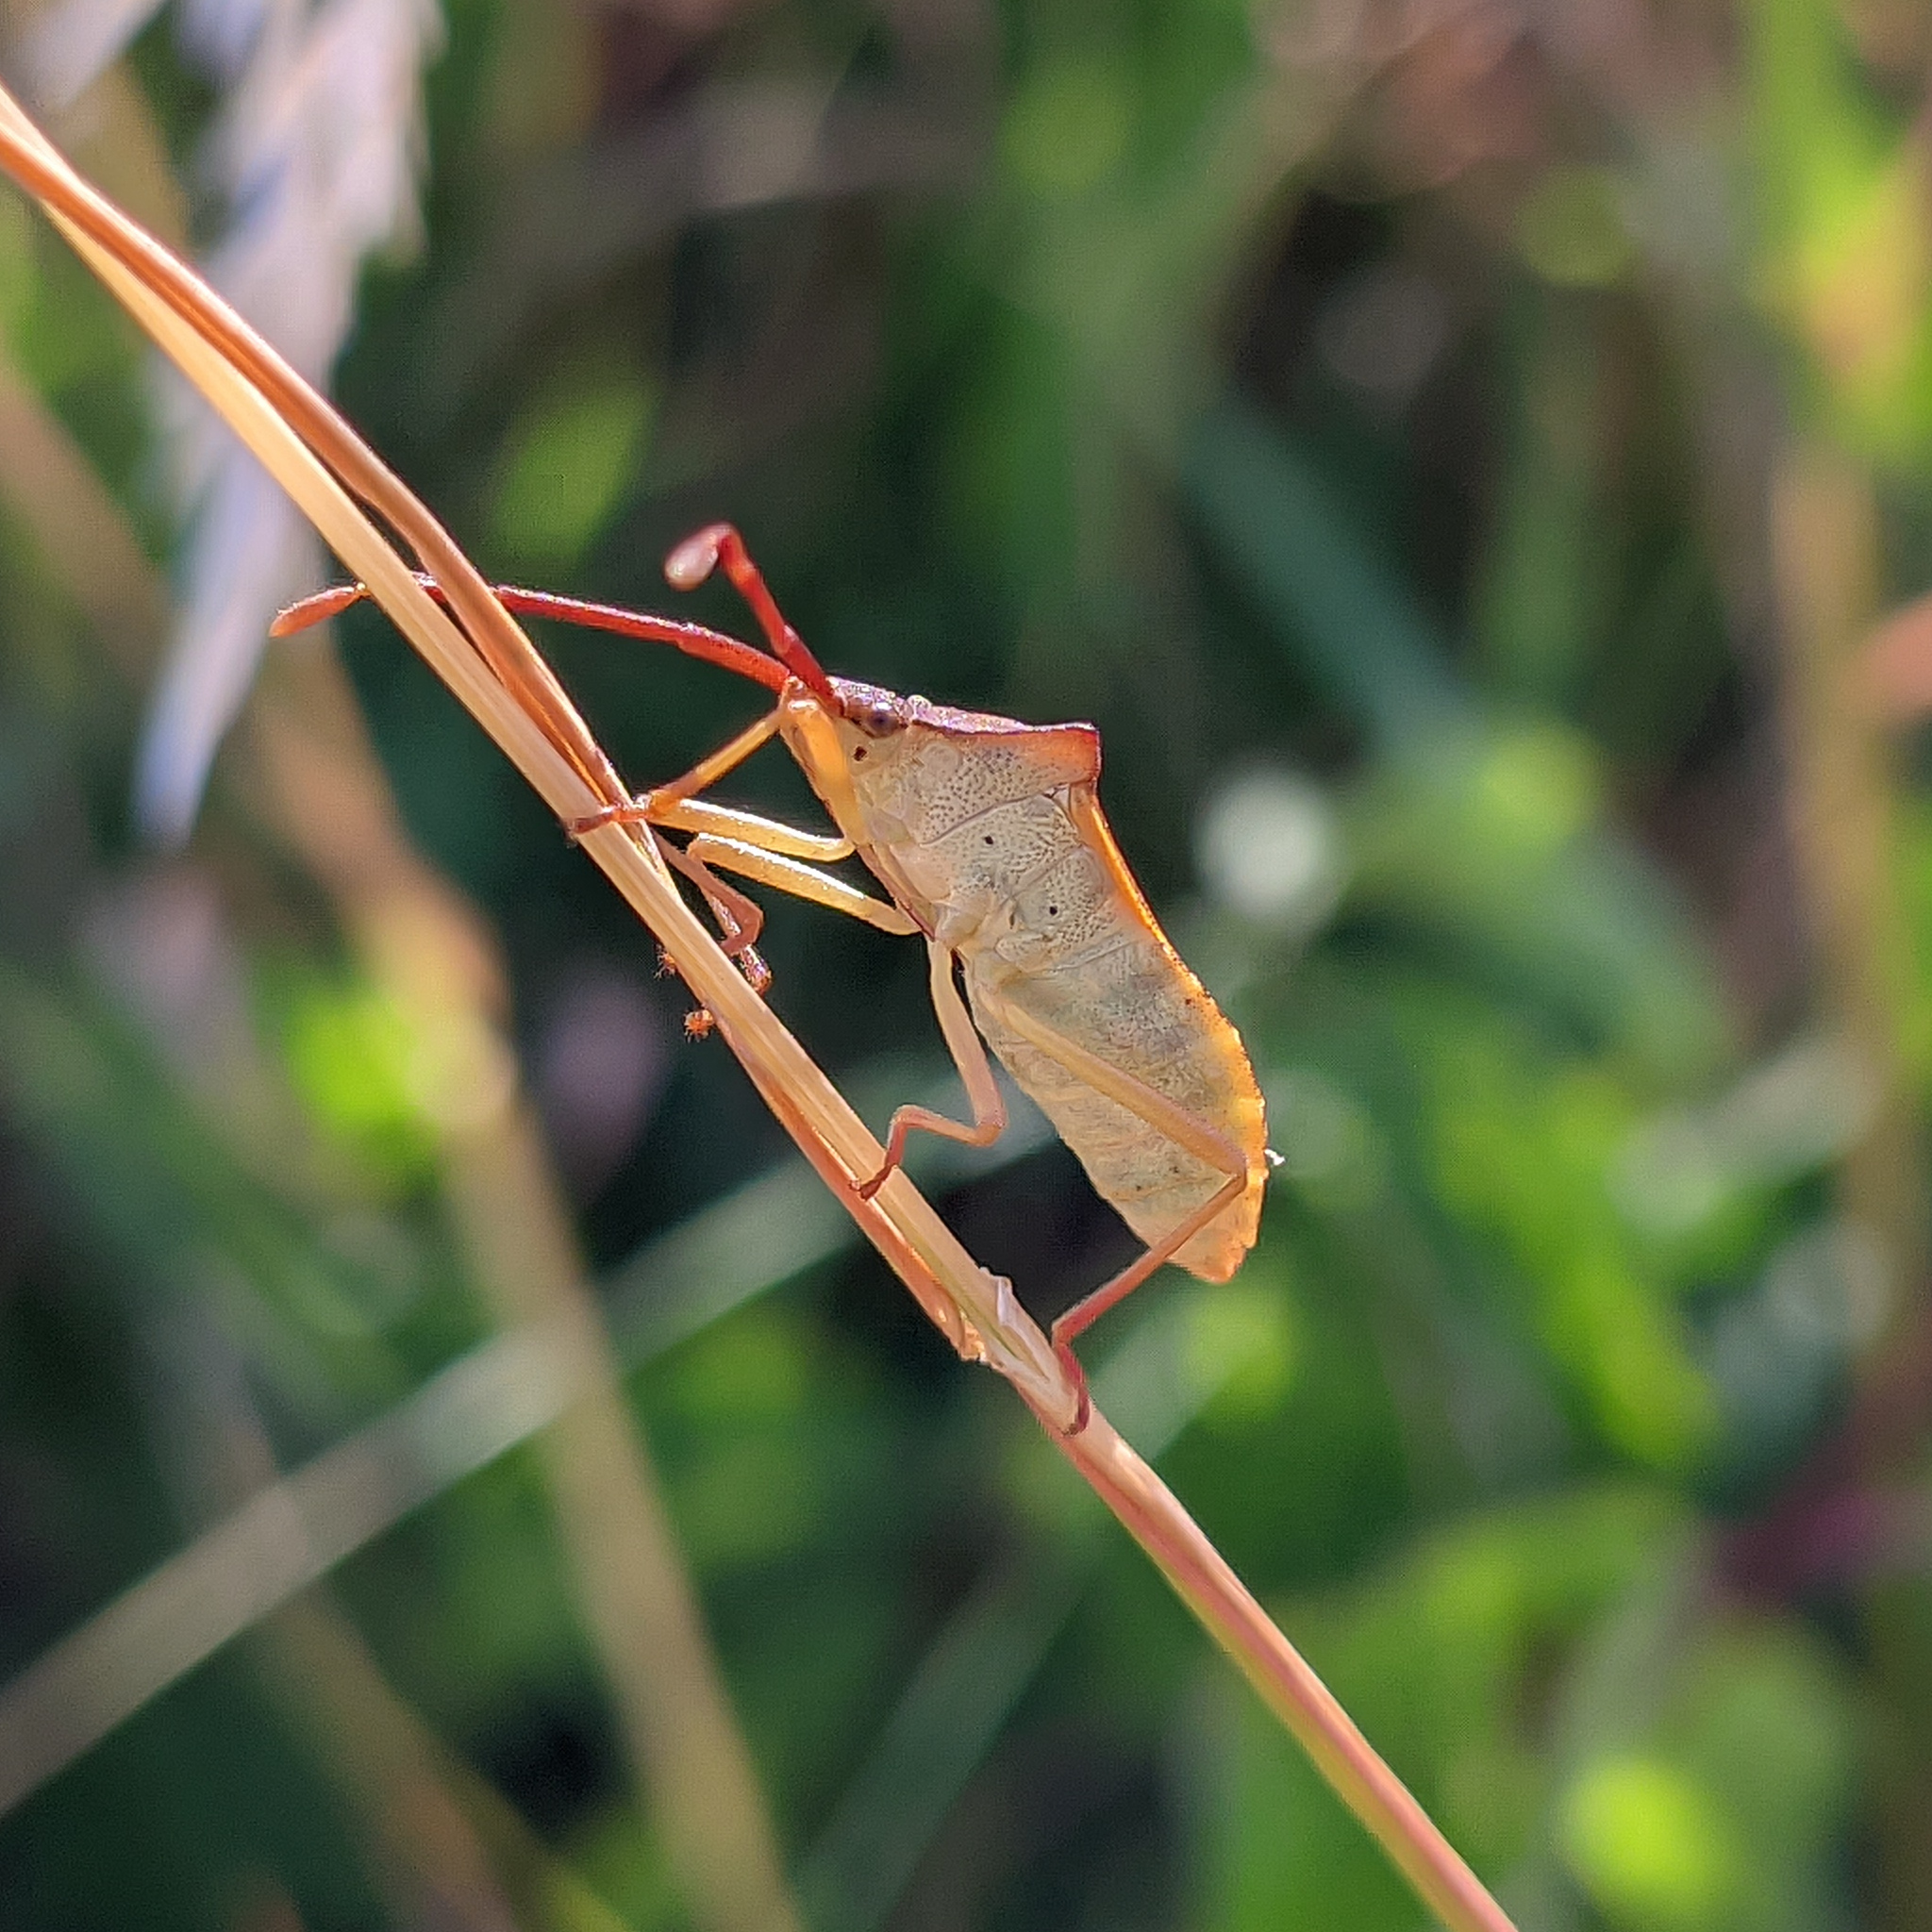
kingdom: Animalia
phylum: Arthropoda
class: Insecta
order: Hemiptera
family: Coreidae
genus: Gonocerus
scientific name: Gonocerus acuteangulatus
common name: Box bug
